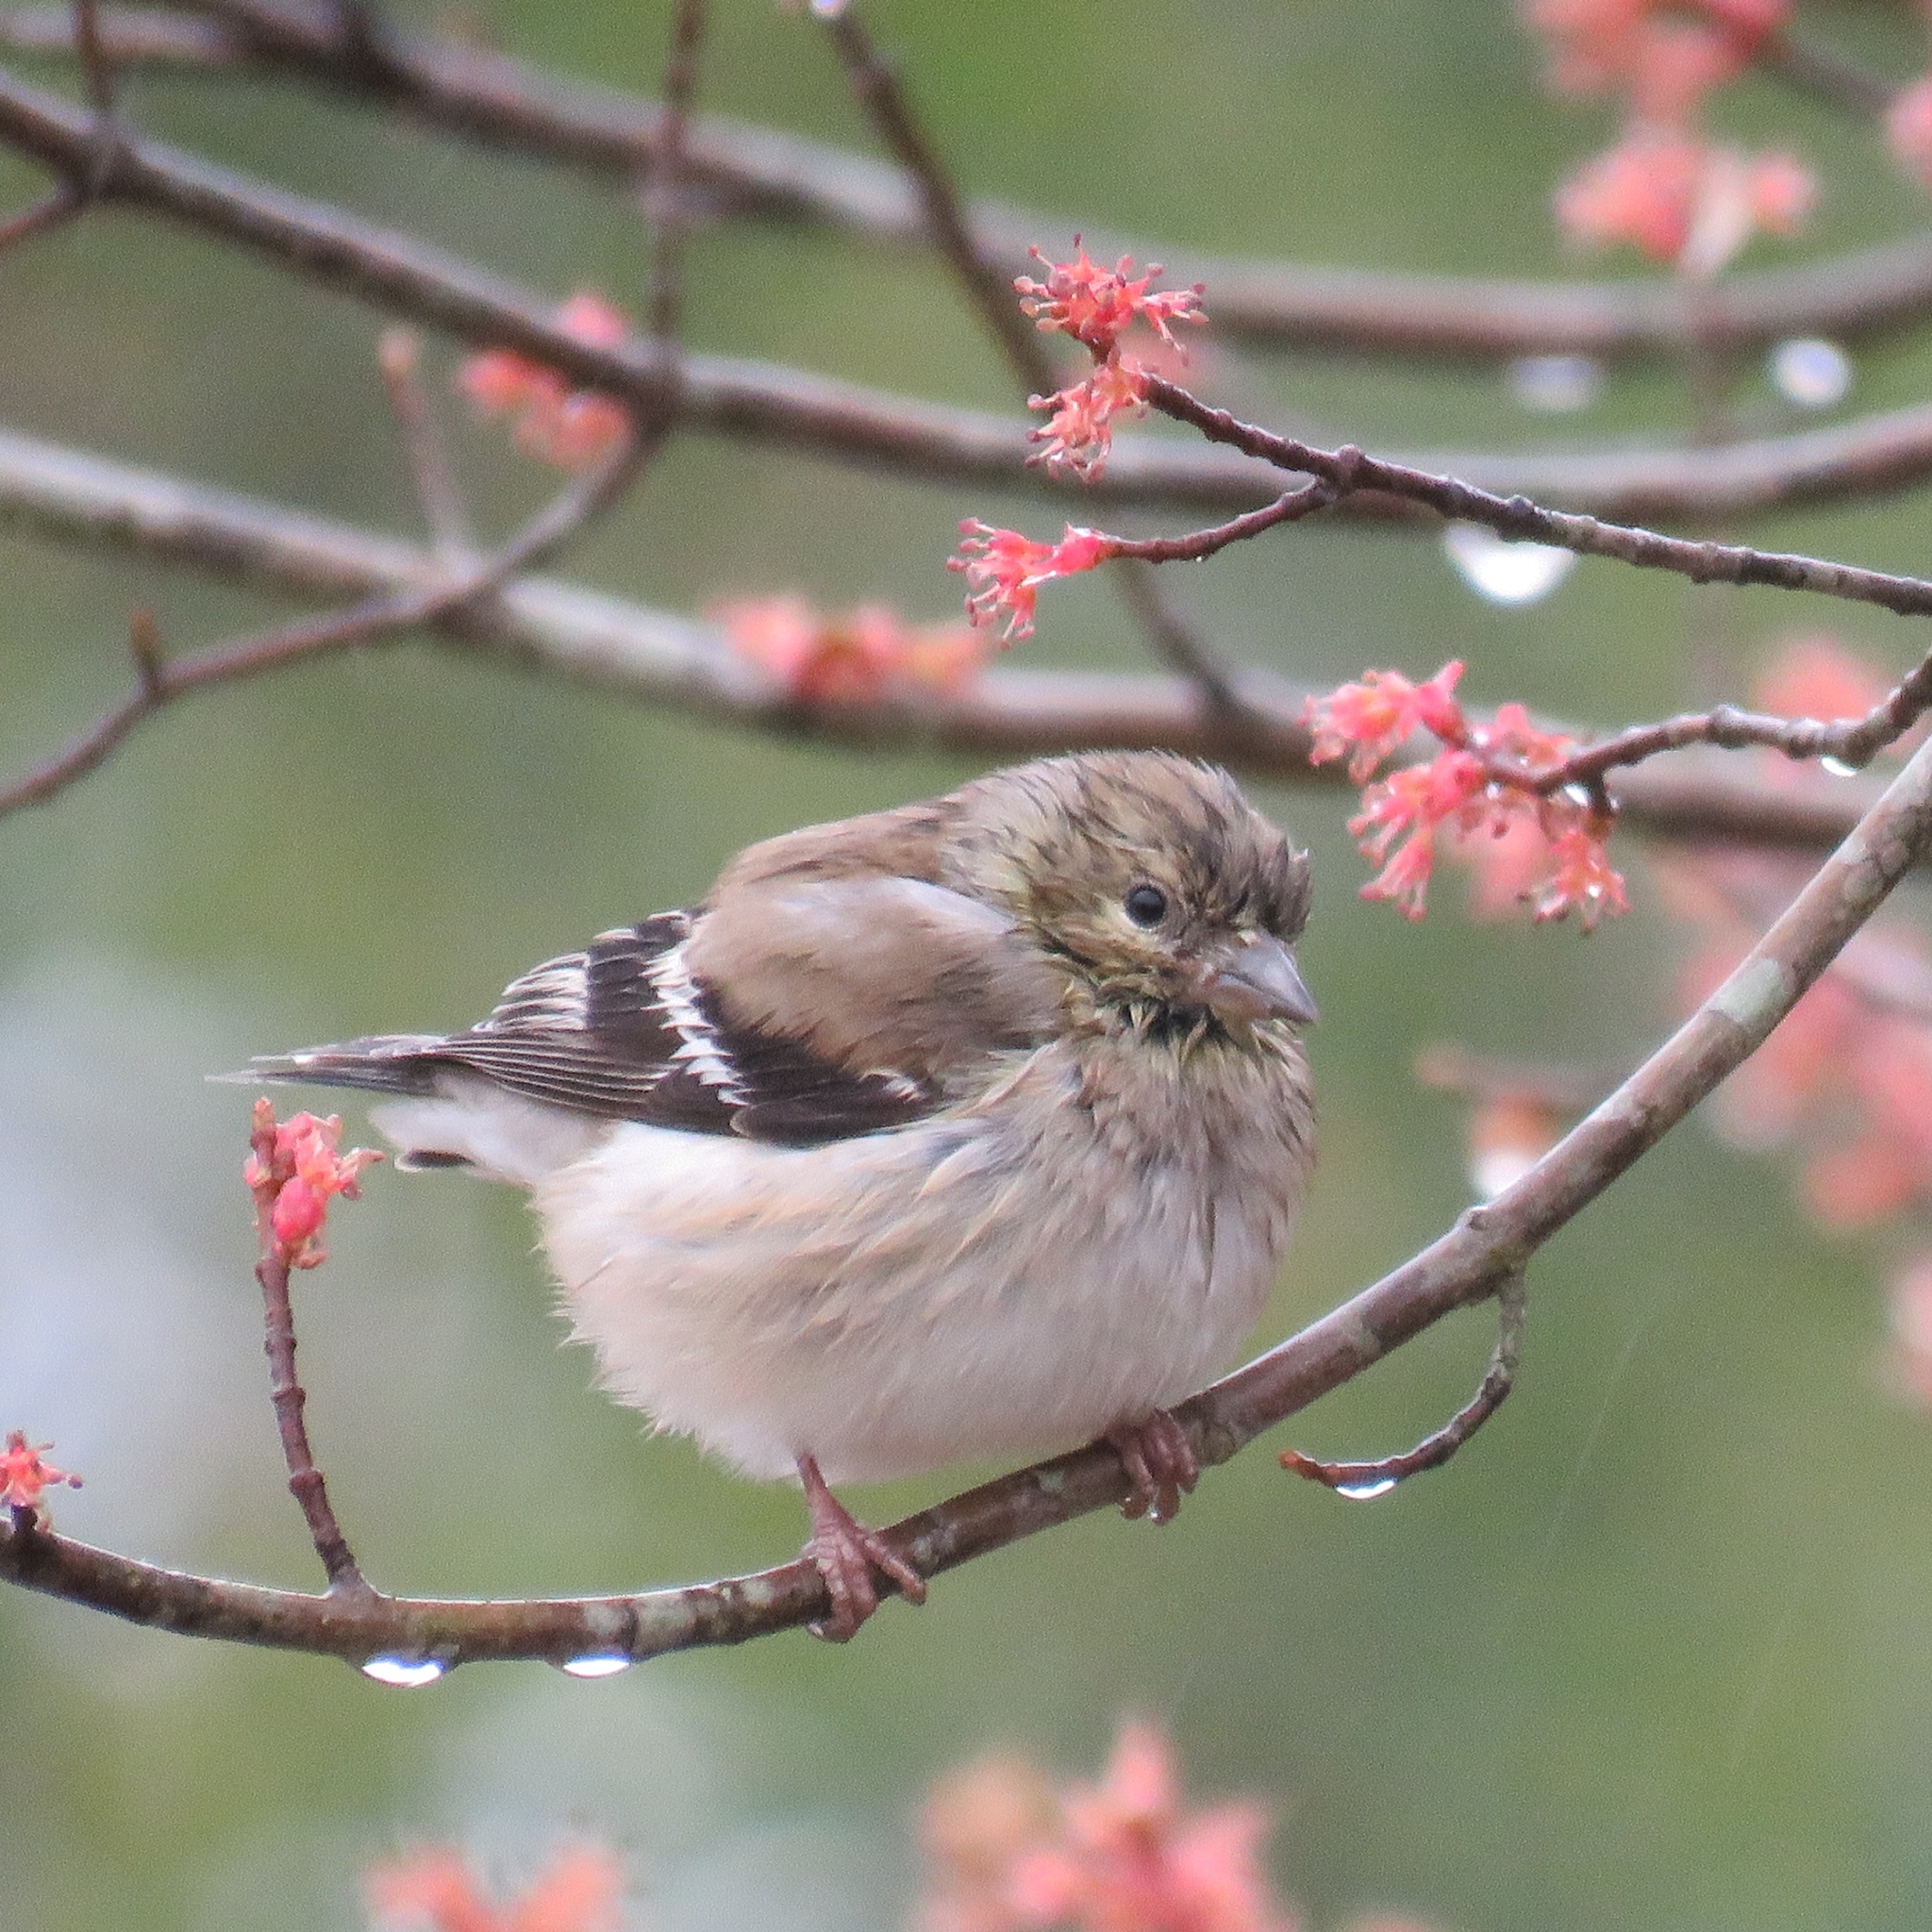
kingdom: Animalia
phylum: Chordata
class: Aves
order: Passeriformes
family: Fringillidae
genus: Spinus
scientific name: Spinus tristis
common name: American goldfinch
